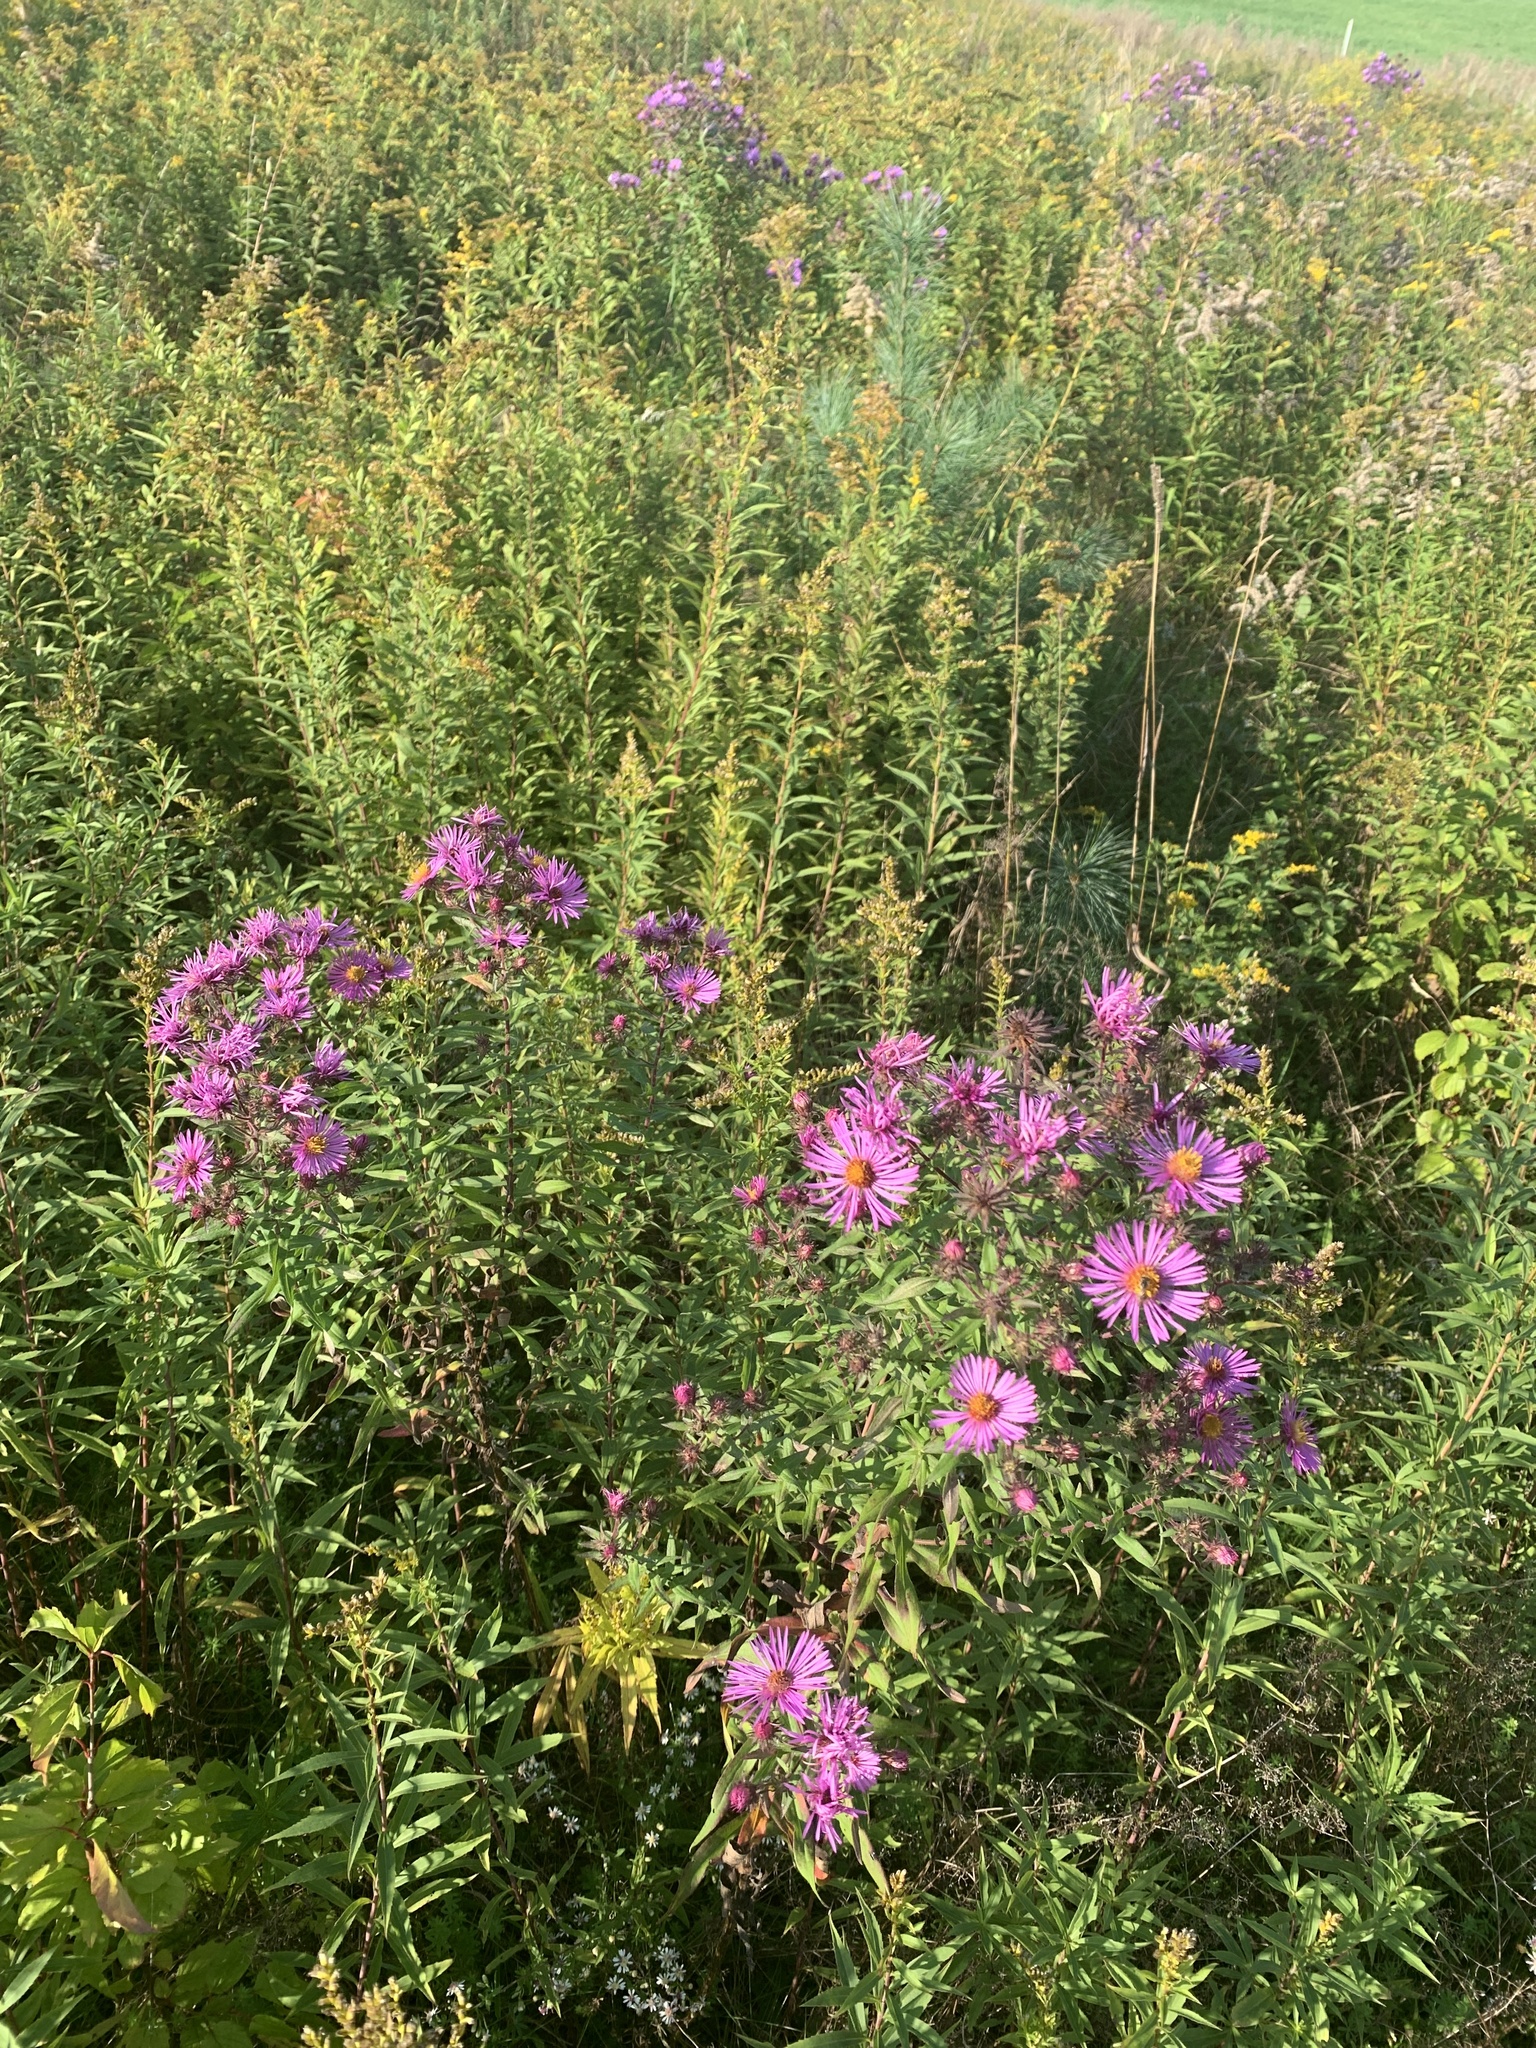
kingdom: Plantae
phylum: Tracheophyta
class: Magnoliopsida
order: Asterales
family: Asteraceae
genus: Symphyotrichum
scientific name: Symphyotrichum novae-angliae
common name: Michaelmas daisy
